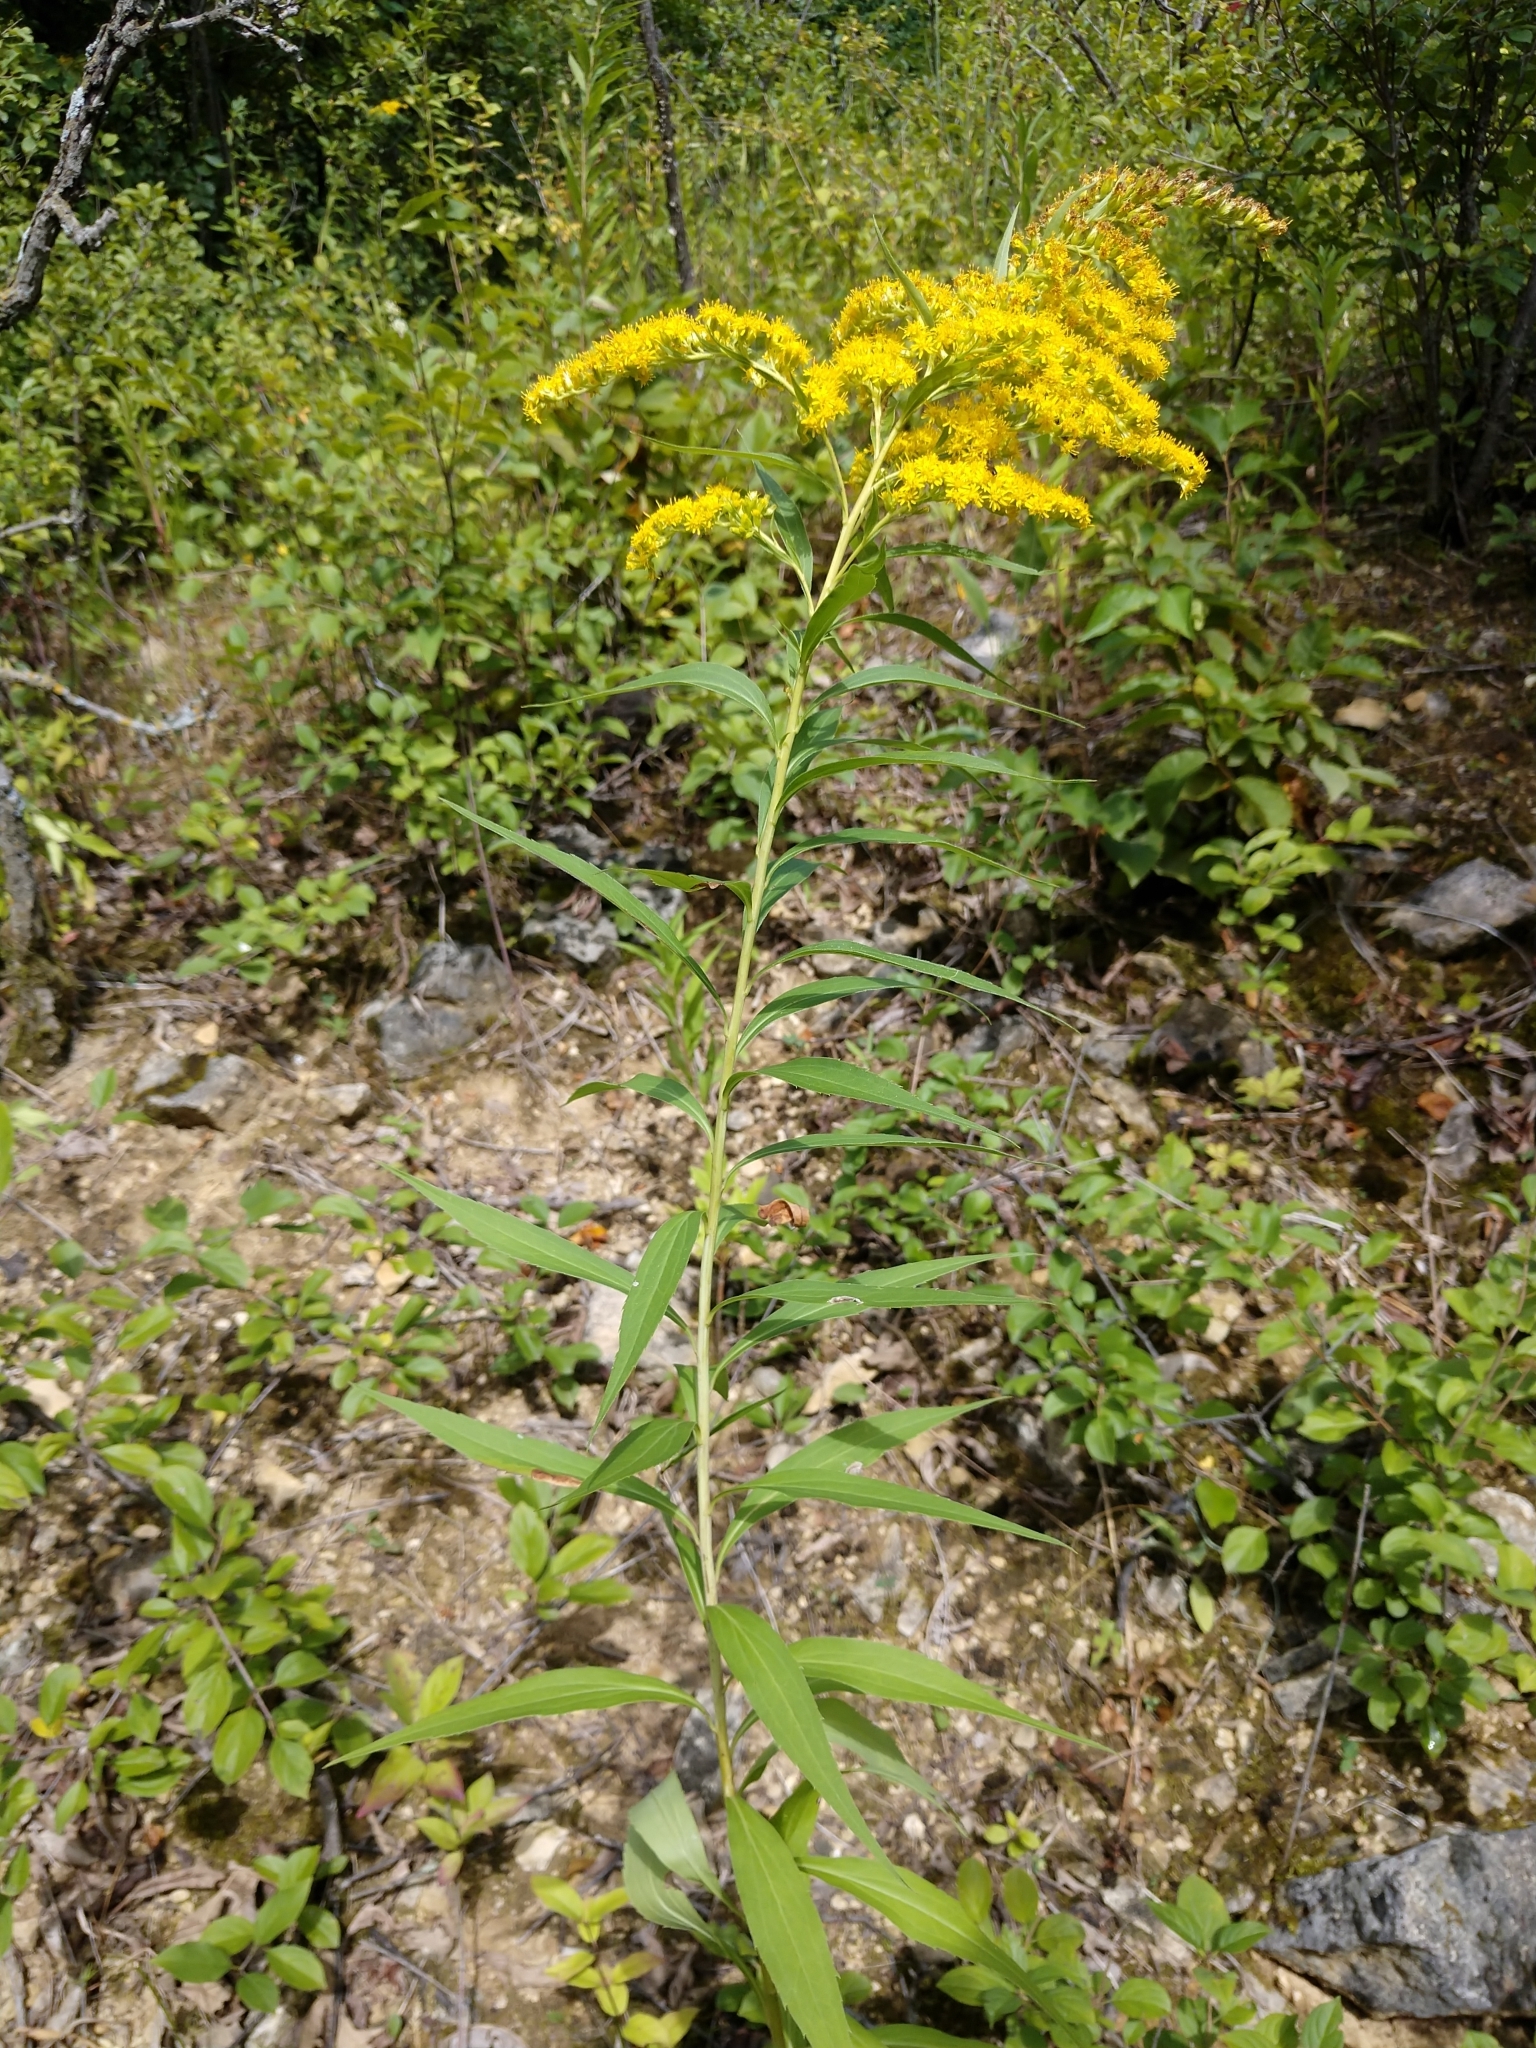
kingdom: Plantae
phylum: Tracheophyta
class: Magnoliopsida
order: Asterales
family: Asteraceae
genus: Solidago
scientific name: Solidago gigantea
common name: Giant goldenrod
